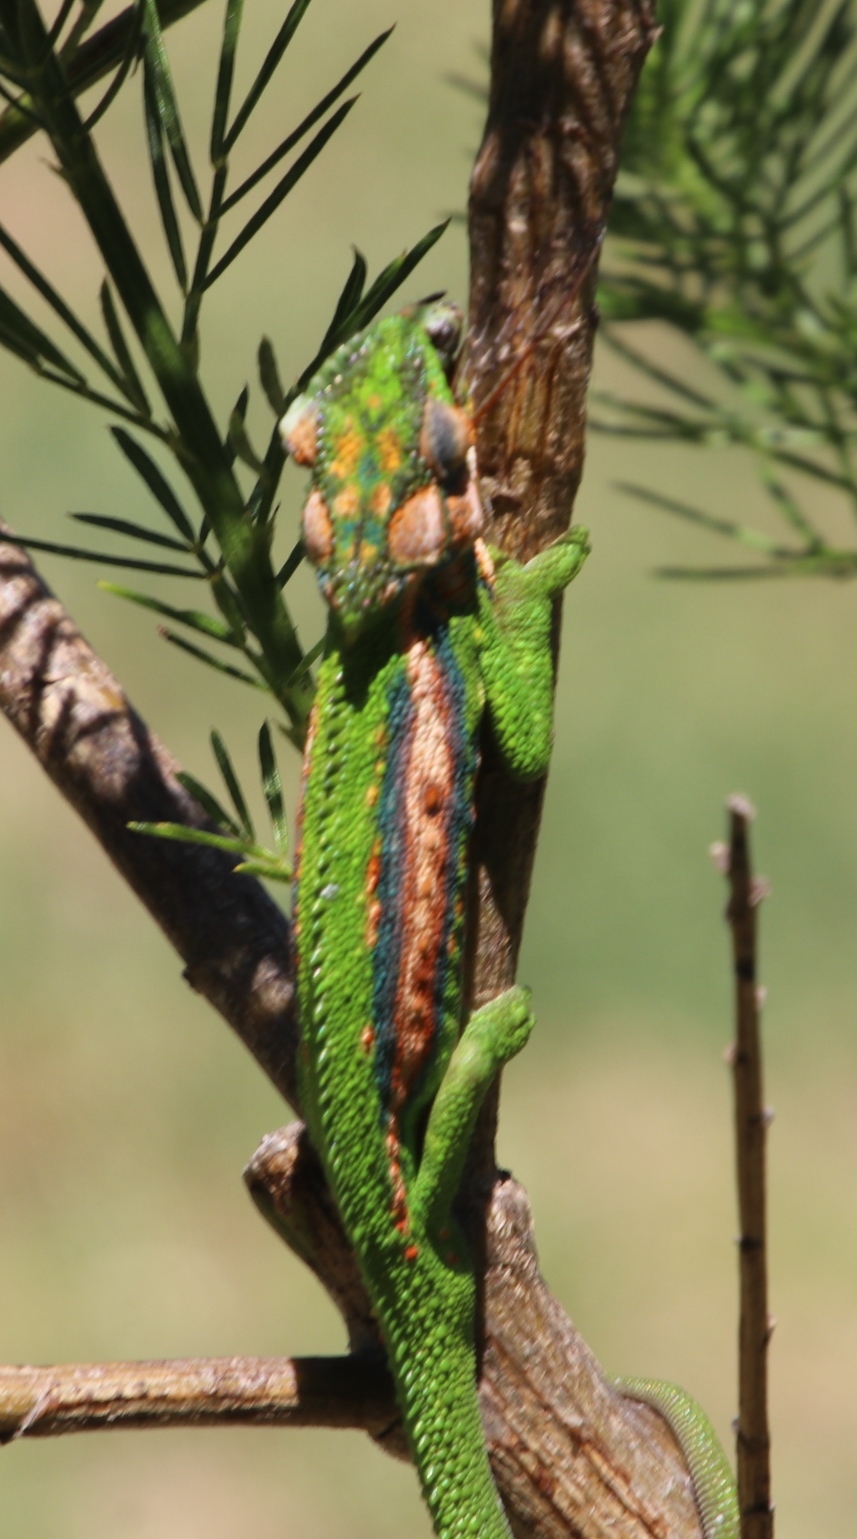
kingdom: Animalia
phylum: Chordata
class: Squamata
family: Chamaeleonidae
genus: Bradypodion
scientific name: Bradypodion pumilum
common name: Cape dwarf chameleon
